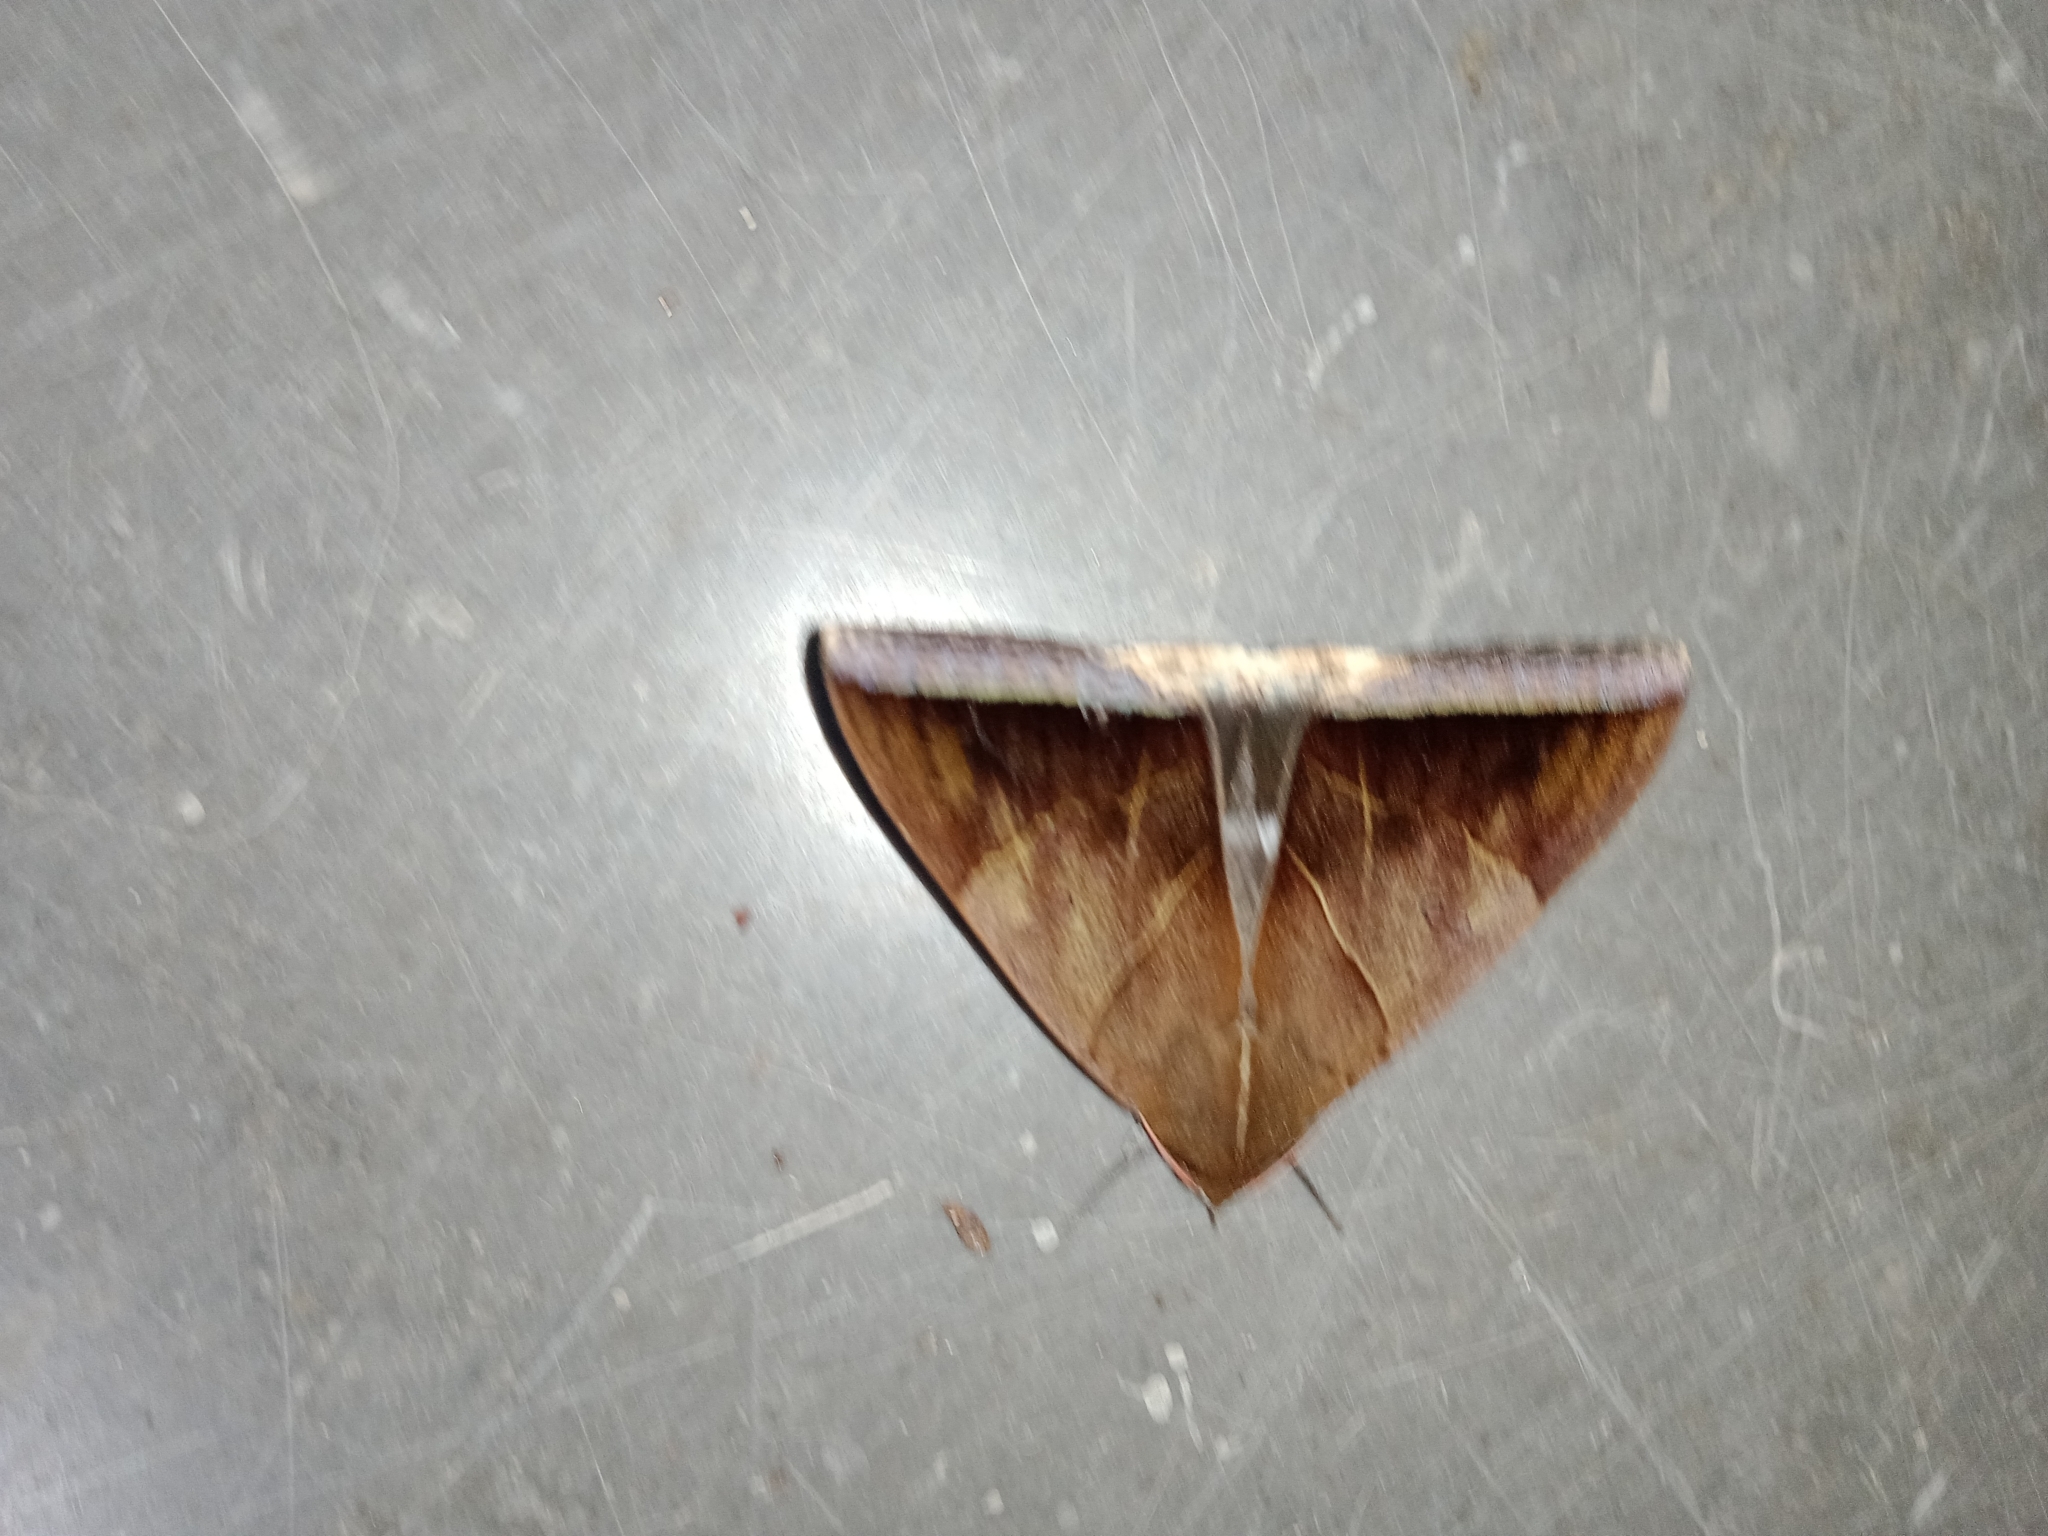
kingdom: Animalia
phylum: Arthropoda
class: Insecta
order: Lepidoptera
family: Erebidae
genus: Artena
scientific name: Artena dotata
